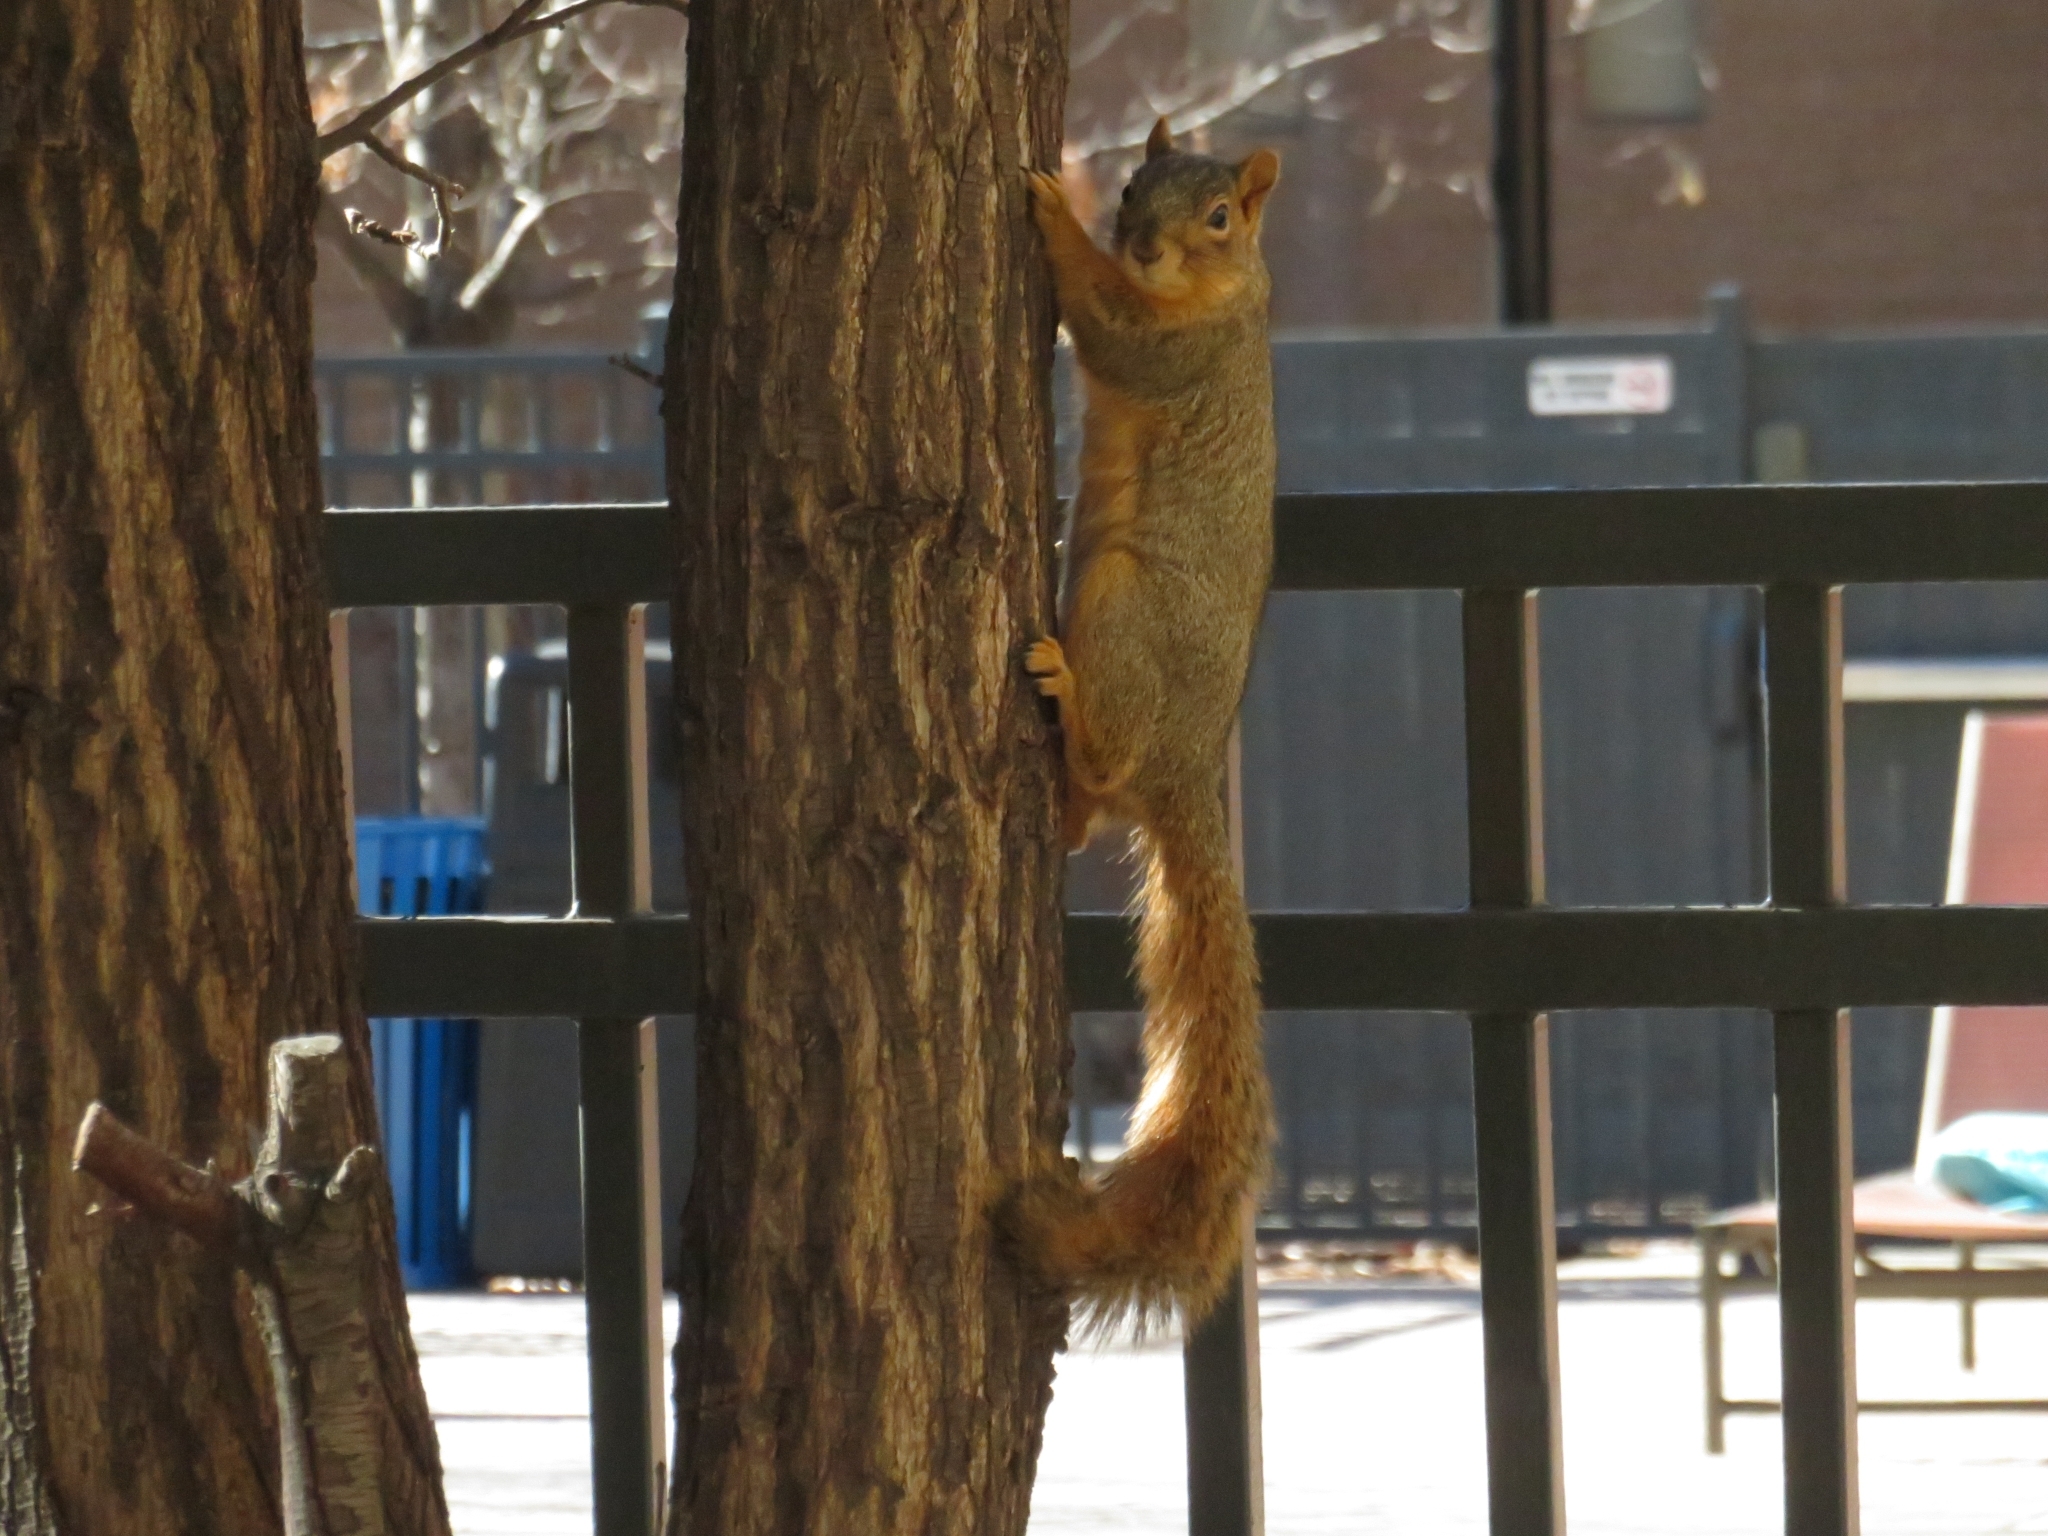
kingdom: Animalia
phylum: Chordata
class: Mammalia
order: Rodentia
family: Sciuridae
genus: Sciurus
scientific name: Sciurus niger
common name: Fox squirrel
